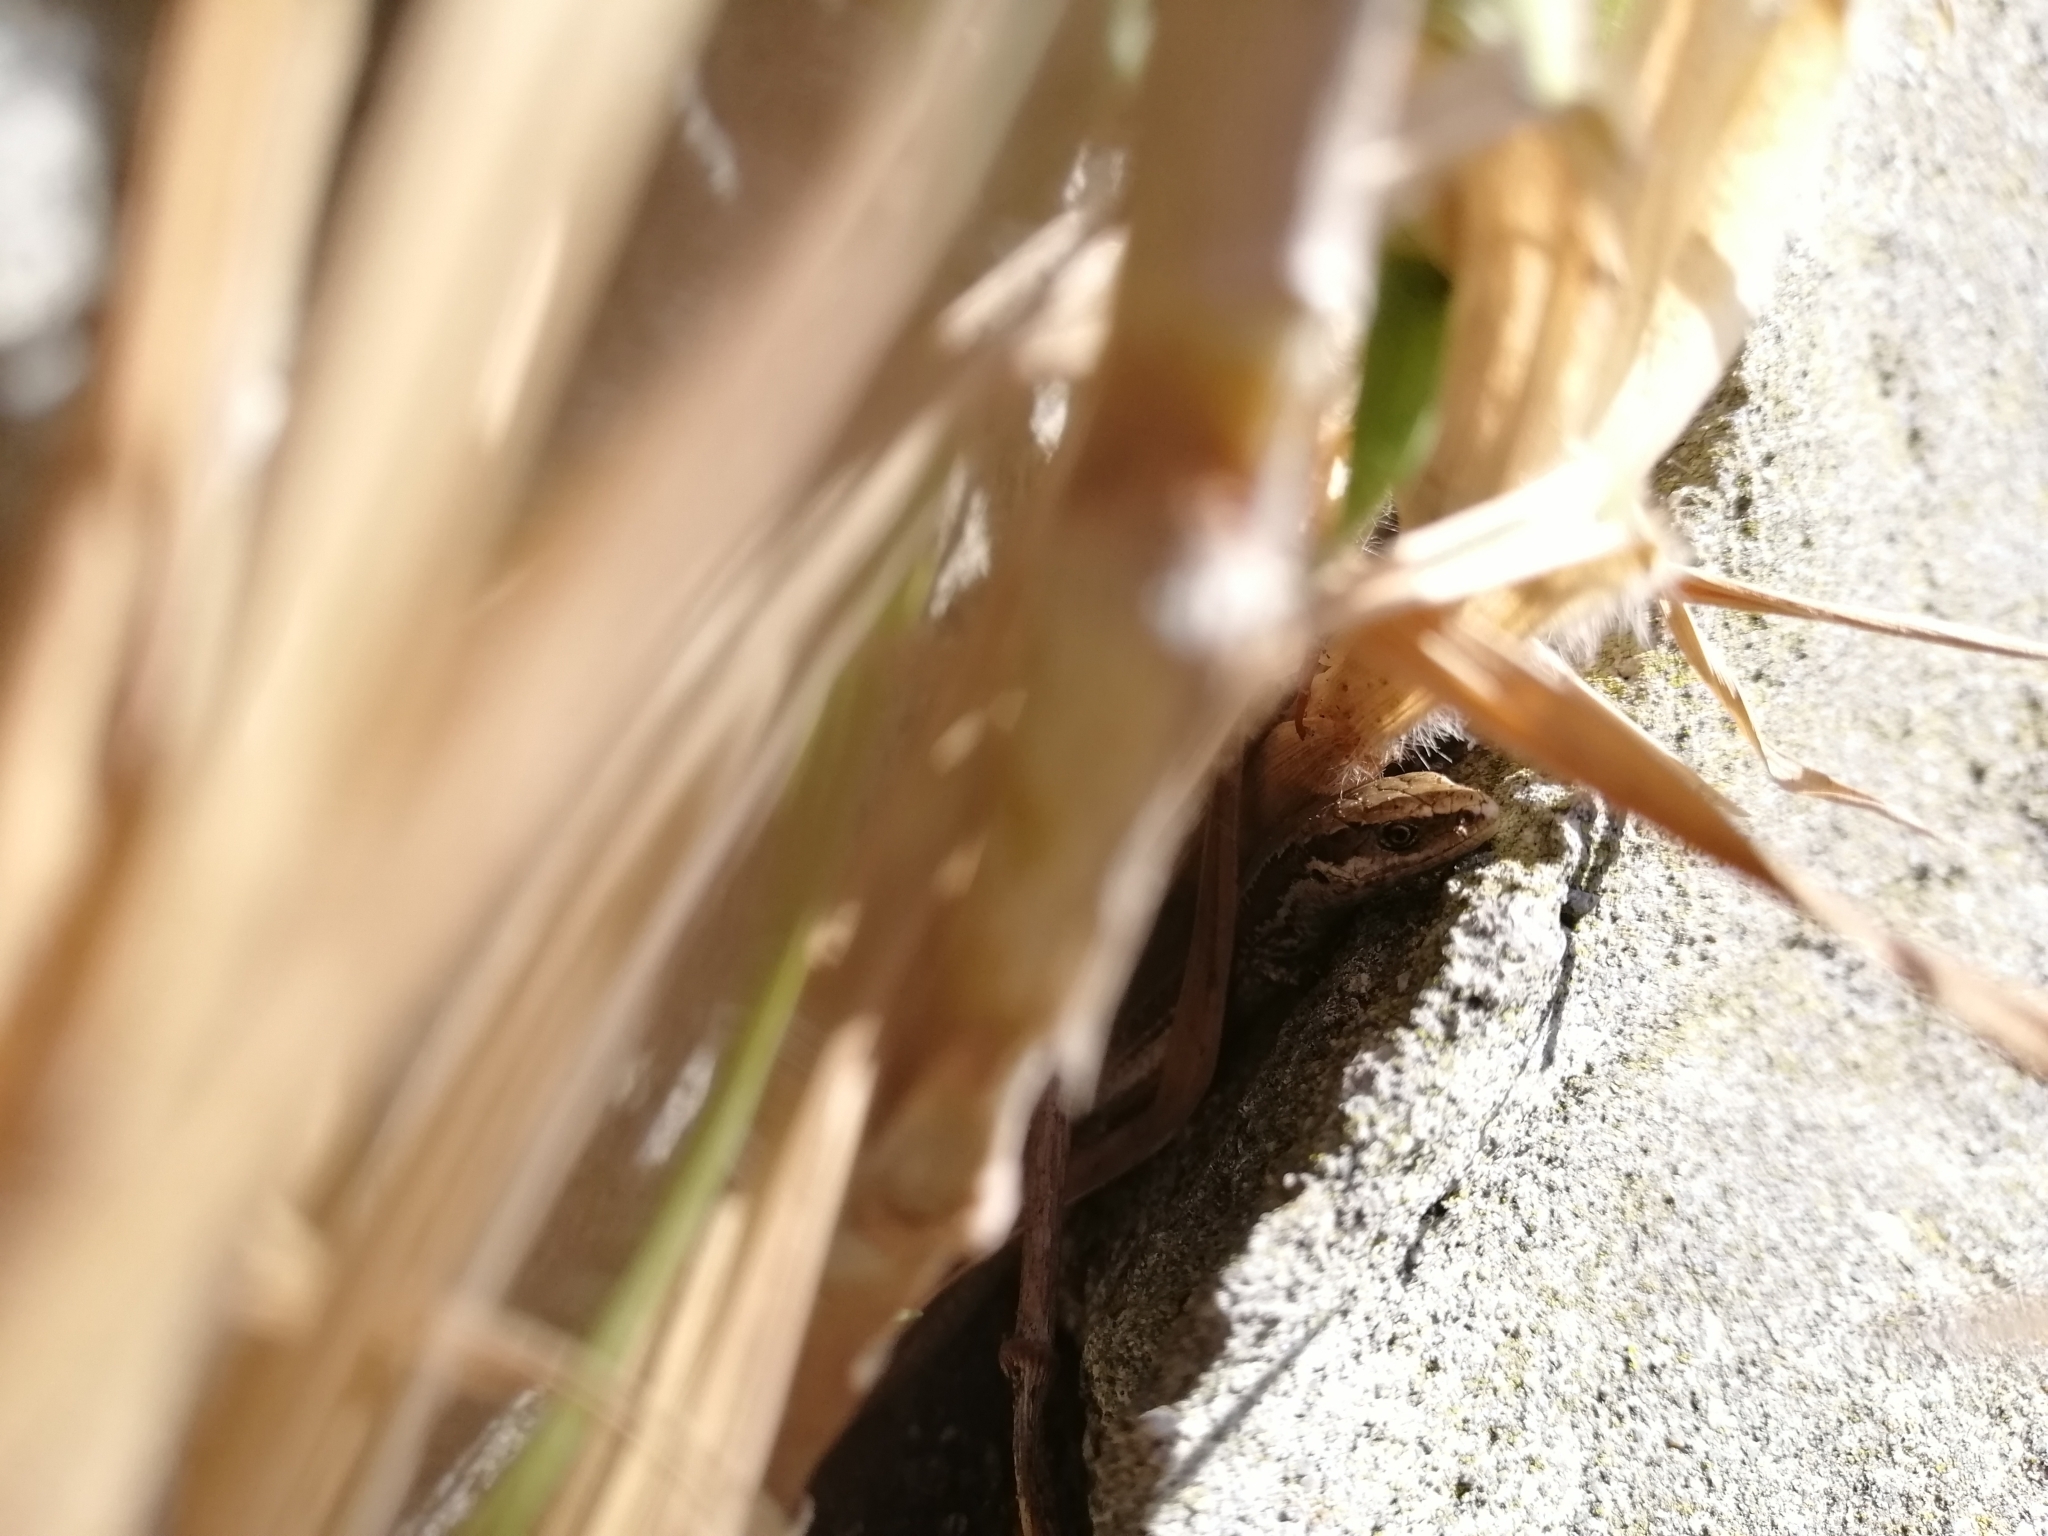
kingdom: Animalia
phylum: Chordata
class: Squamata
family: Scincidae
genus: Oligosoma
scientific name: Oligosoma polychroma
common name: Common new zealand skink
